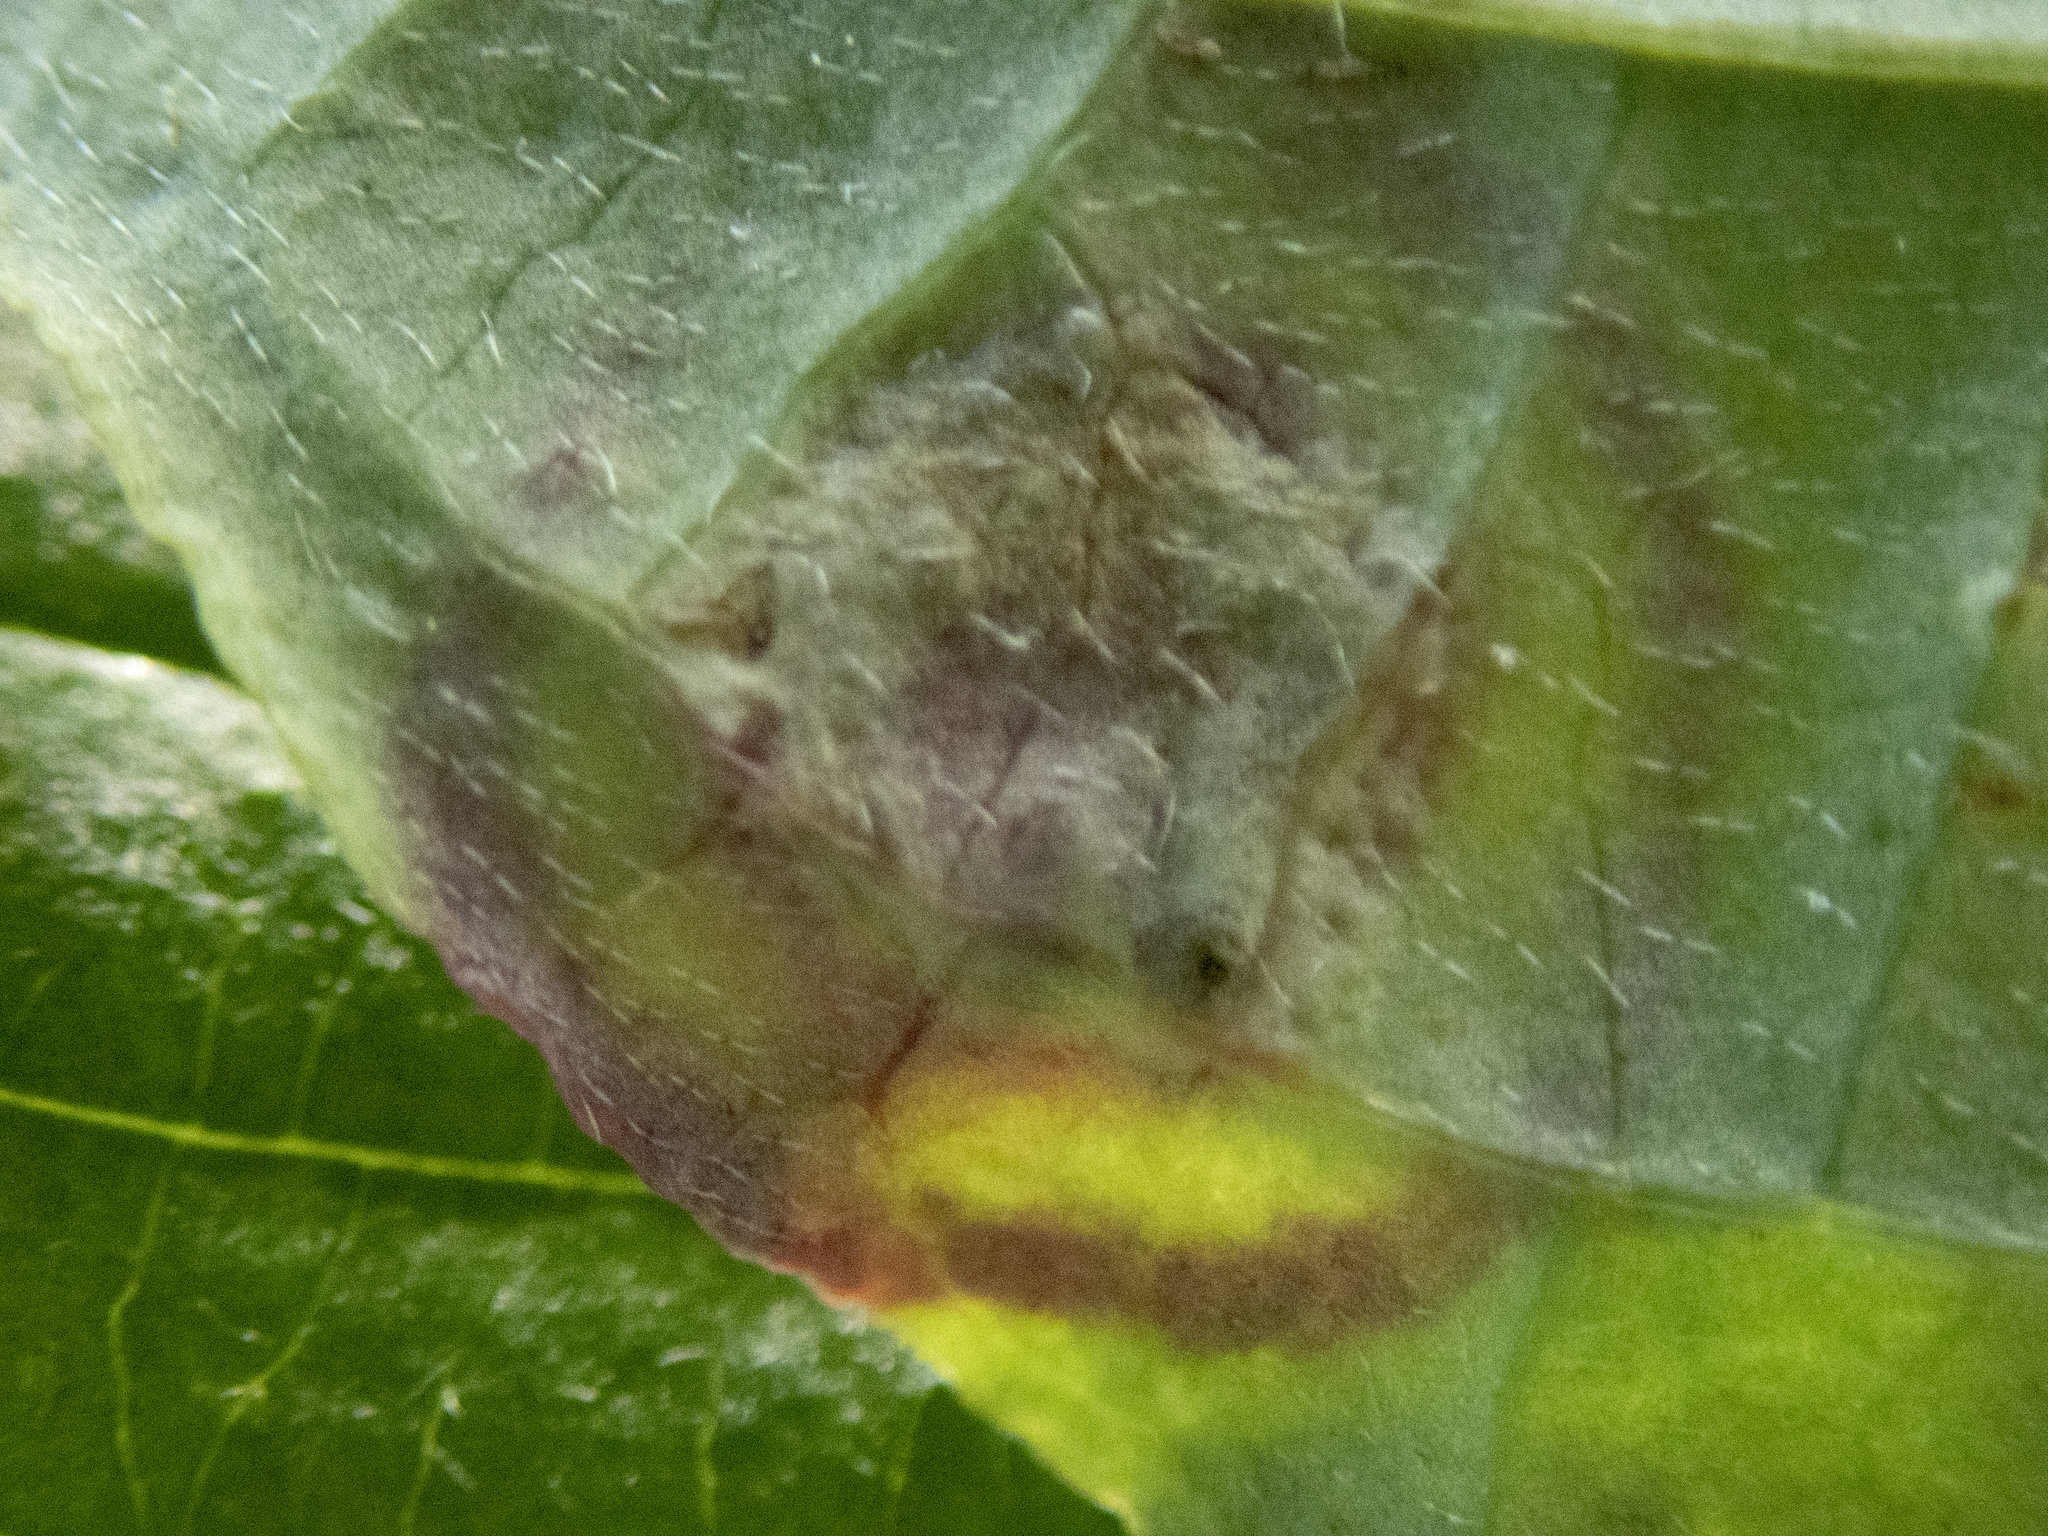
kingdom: Animalia
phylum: Arthropoda
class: Insecta
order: Diptera
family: Cecidomyiidae
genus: Parallelodiplosis
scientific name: Parallelodiplosis subtruncata
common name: Dogwood eyespot gall midge
